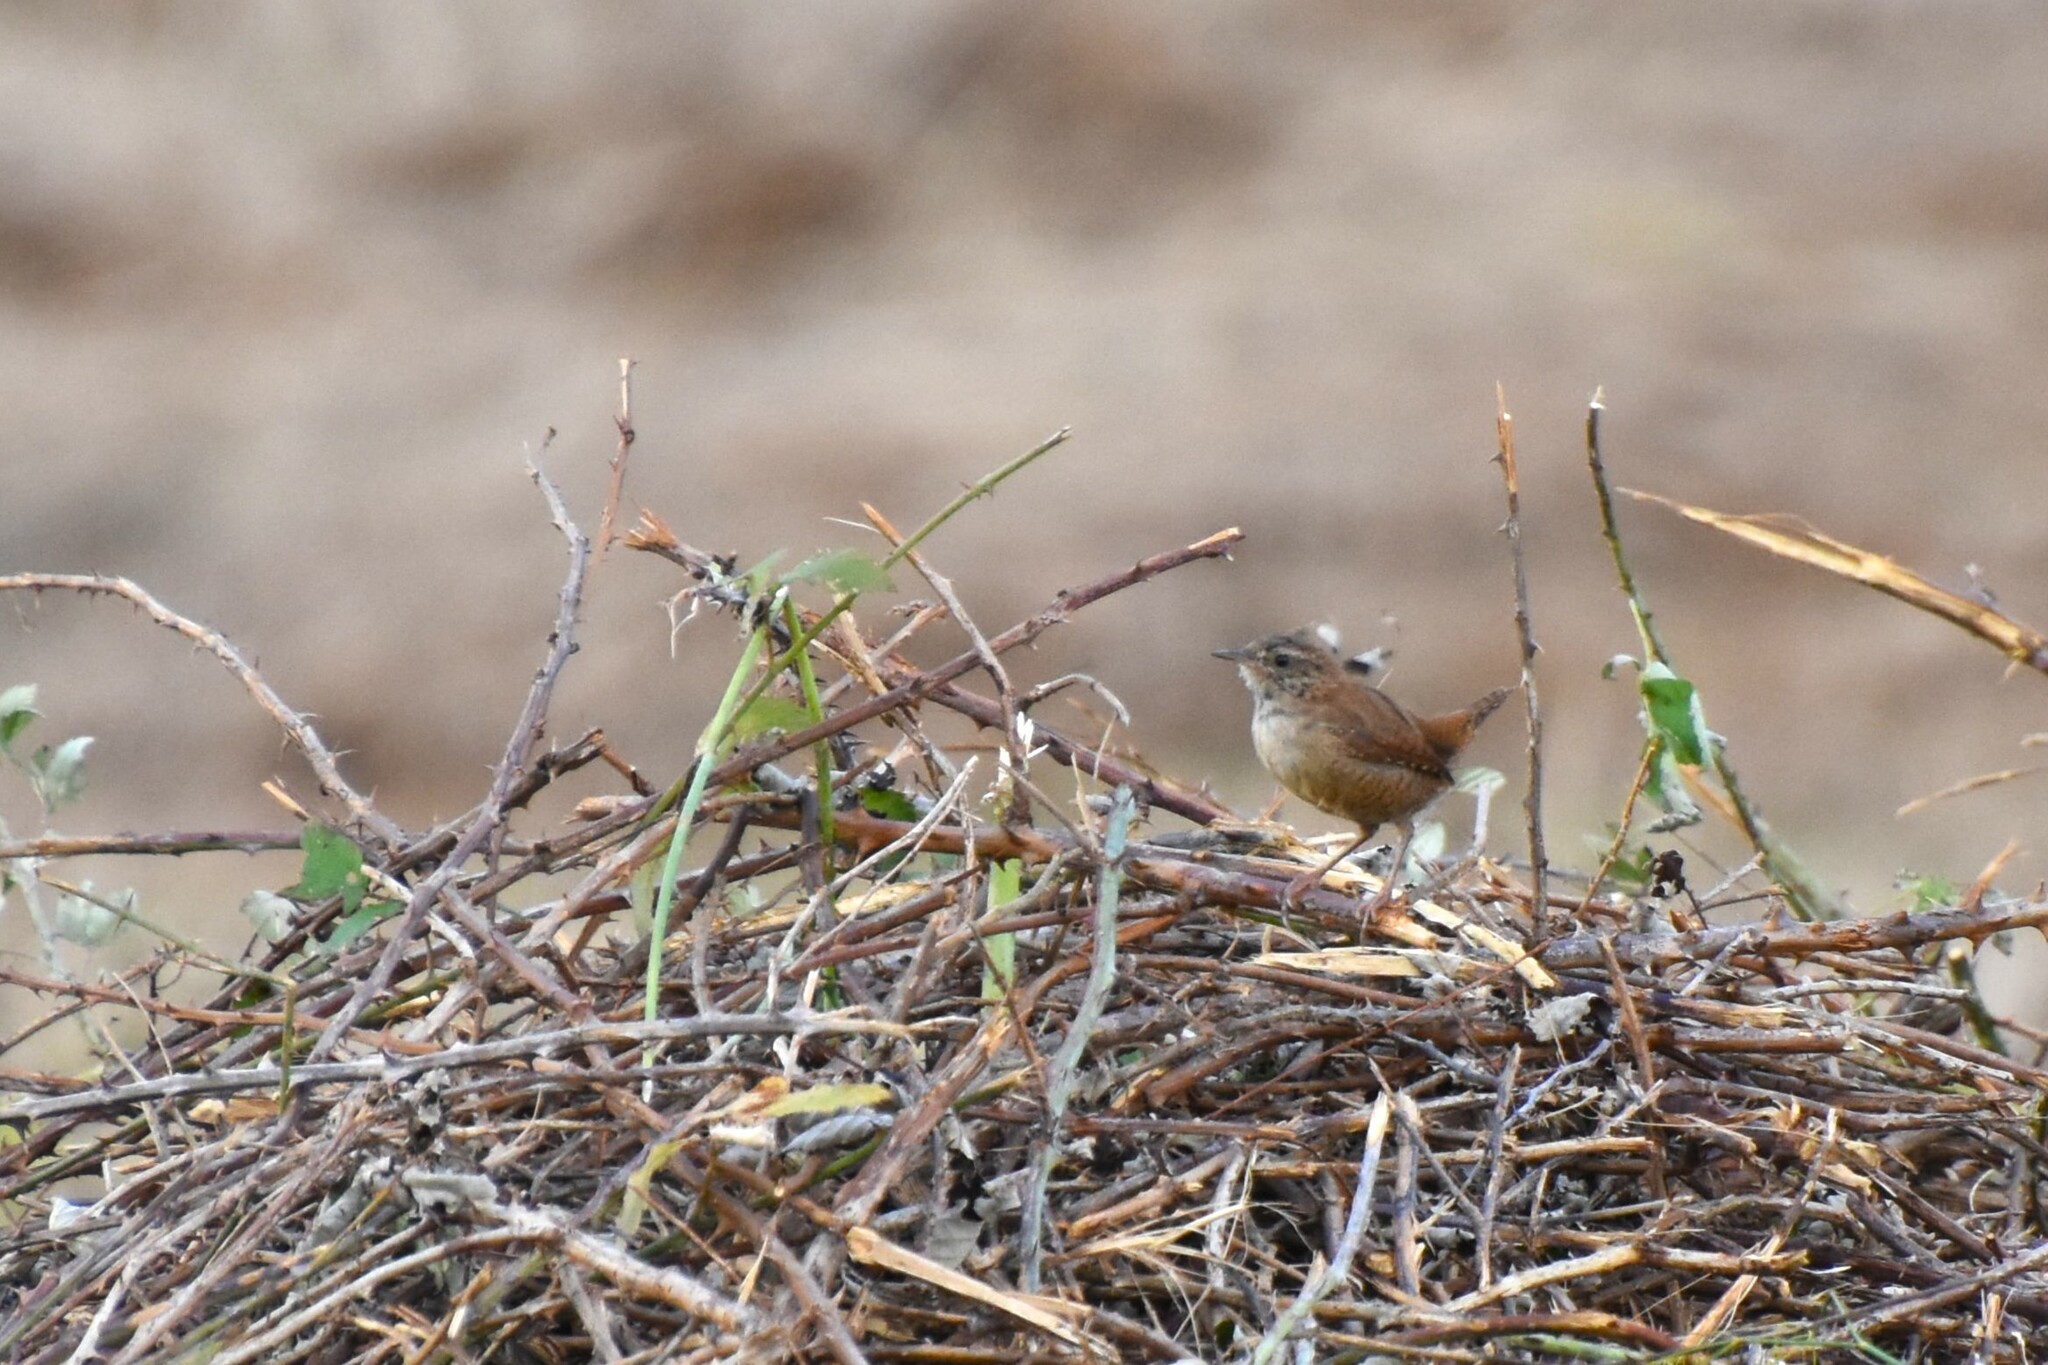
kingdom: Animalia
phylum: Chordata
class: Aves
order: Passeriformes
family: Troglodytidae
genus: Troglodytes
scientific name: Troglodytes troglodytes
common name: Eurasian wren
